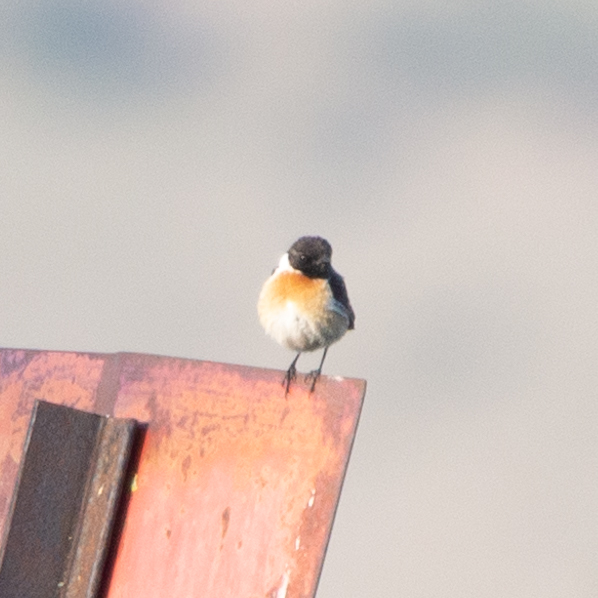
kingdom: Animalia
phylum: Chordata
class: Aves
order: Passeriformes
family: Muscicapidae
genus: Saxicola
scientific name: Saxicola rubicola
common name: European stonechat
